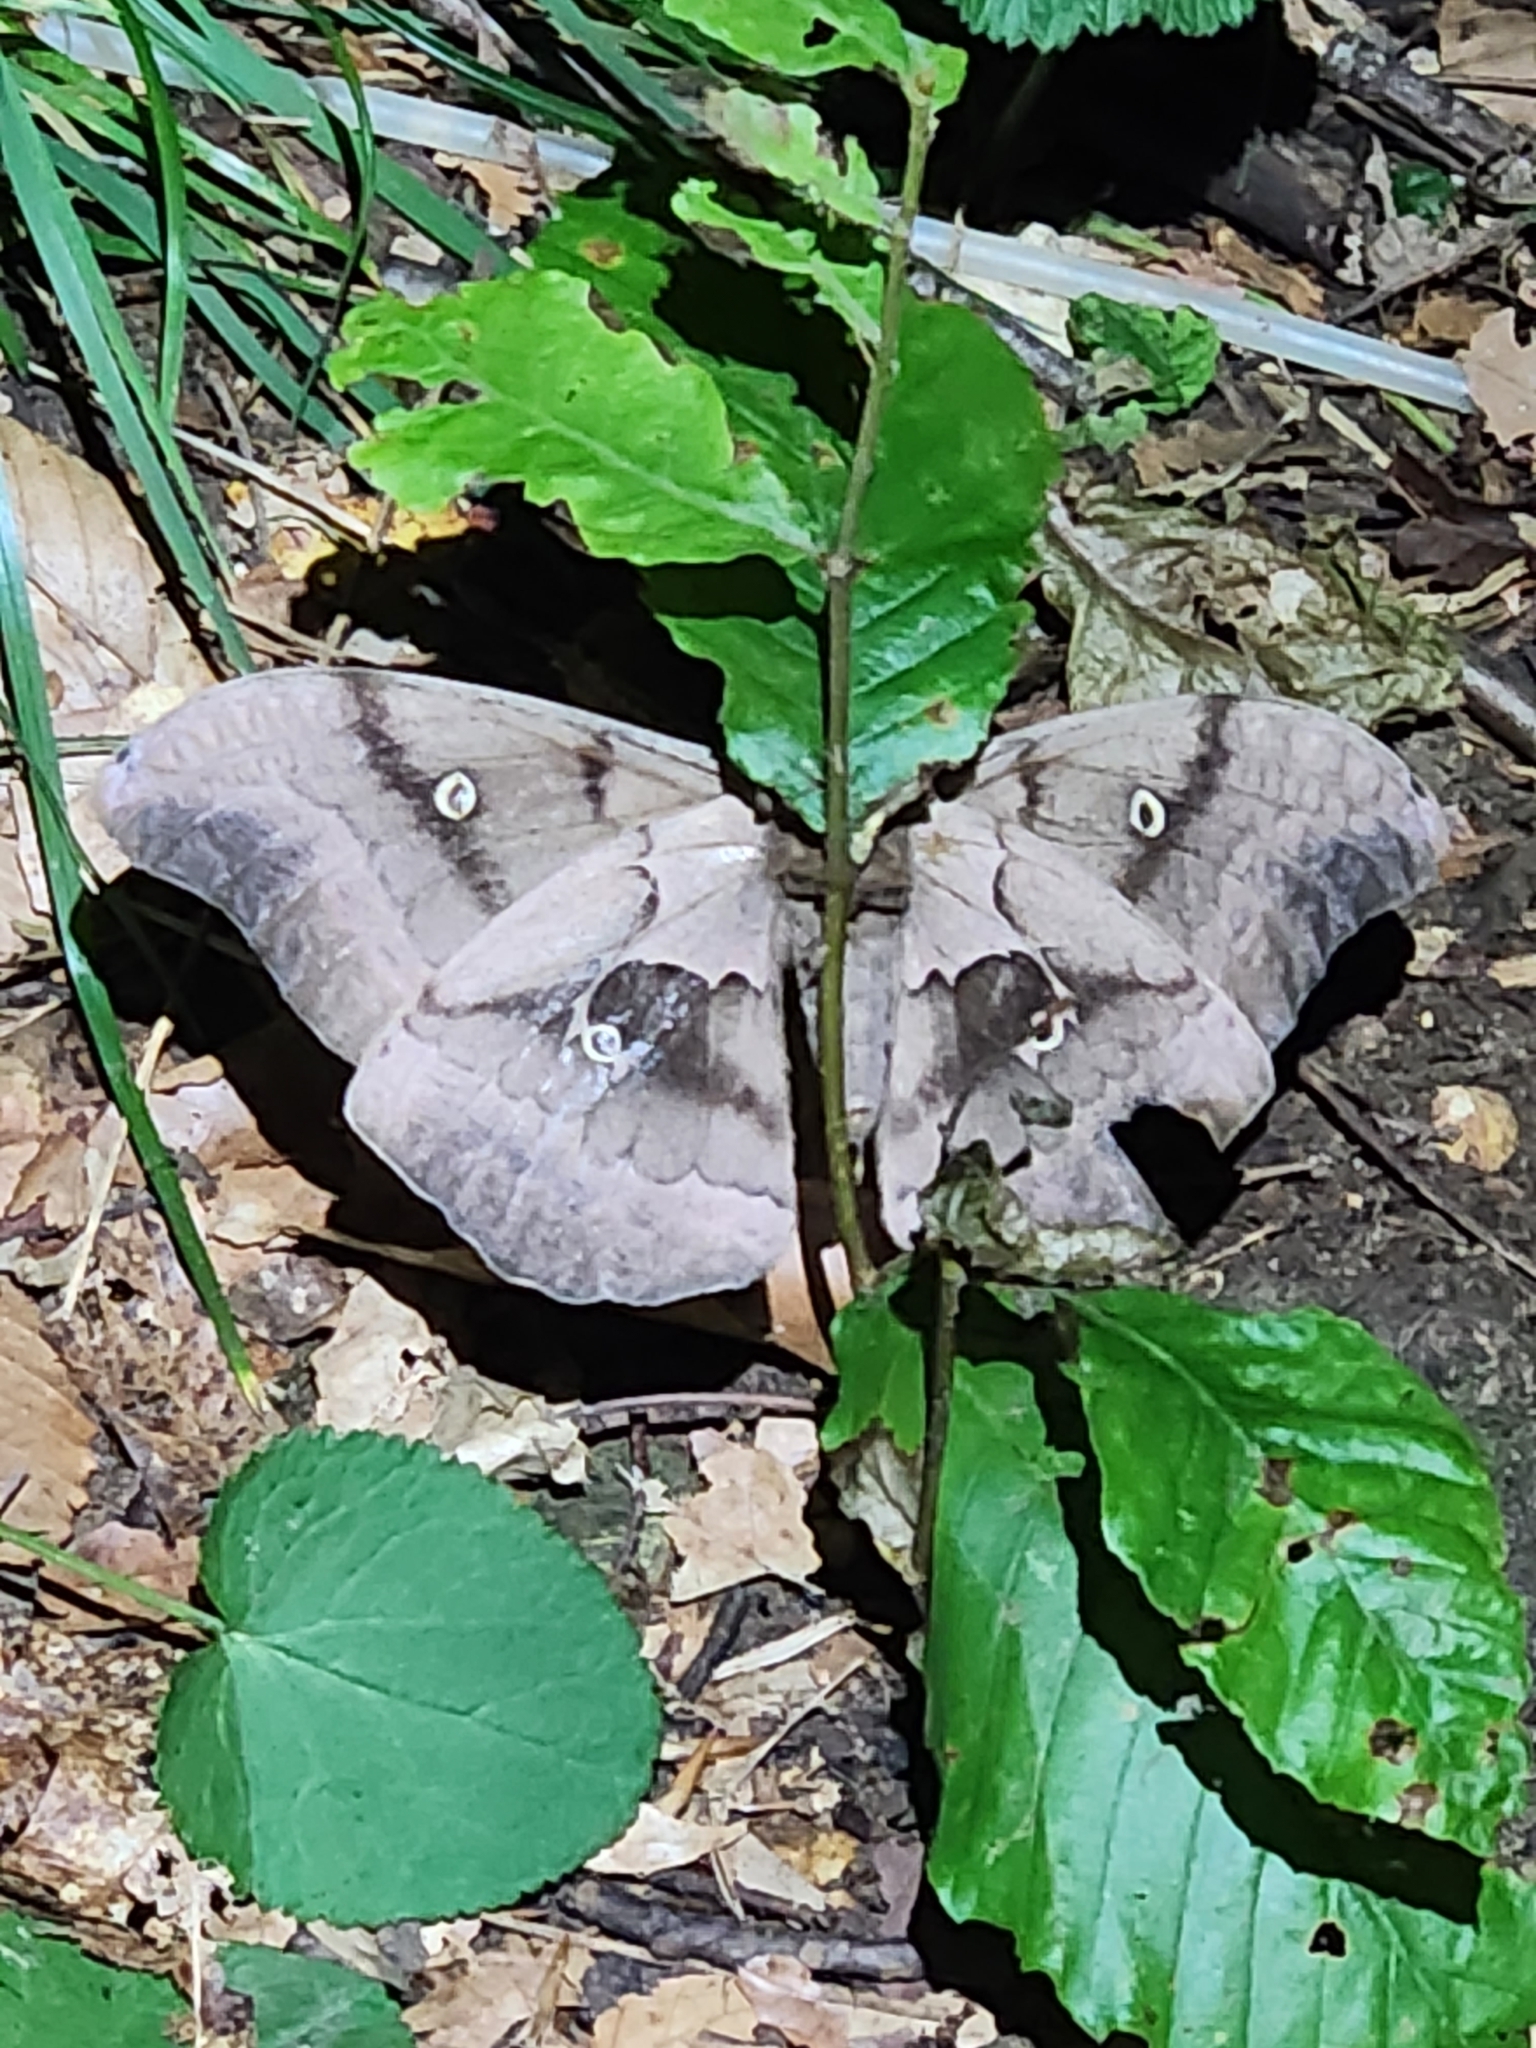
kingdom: Animalia
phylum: Arthropoda
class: Insecta
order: Lepidoptera
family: Saturniidae
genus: Antheraea
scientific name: Antheraea polyphemus
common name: Polyphemus moth
